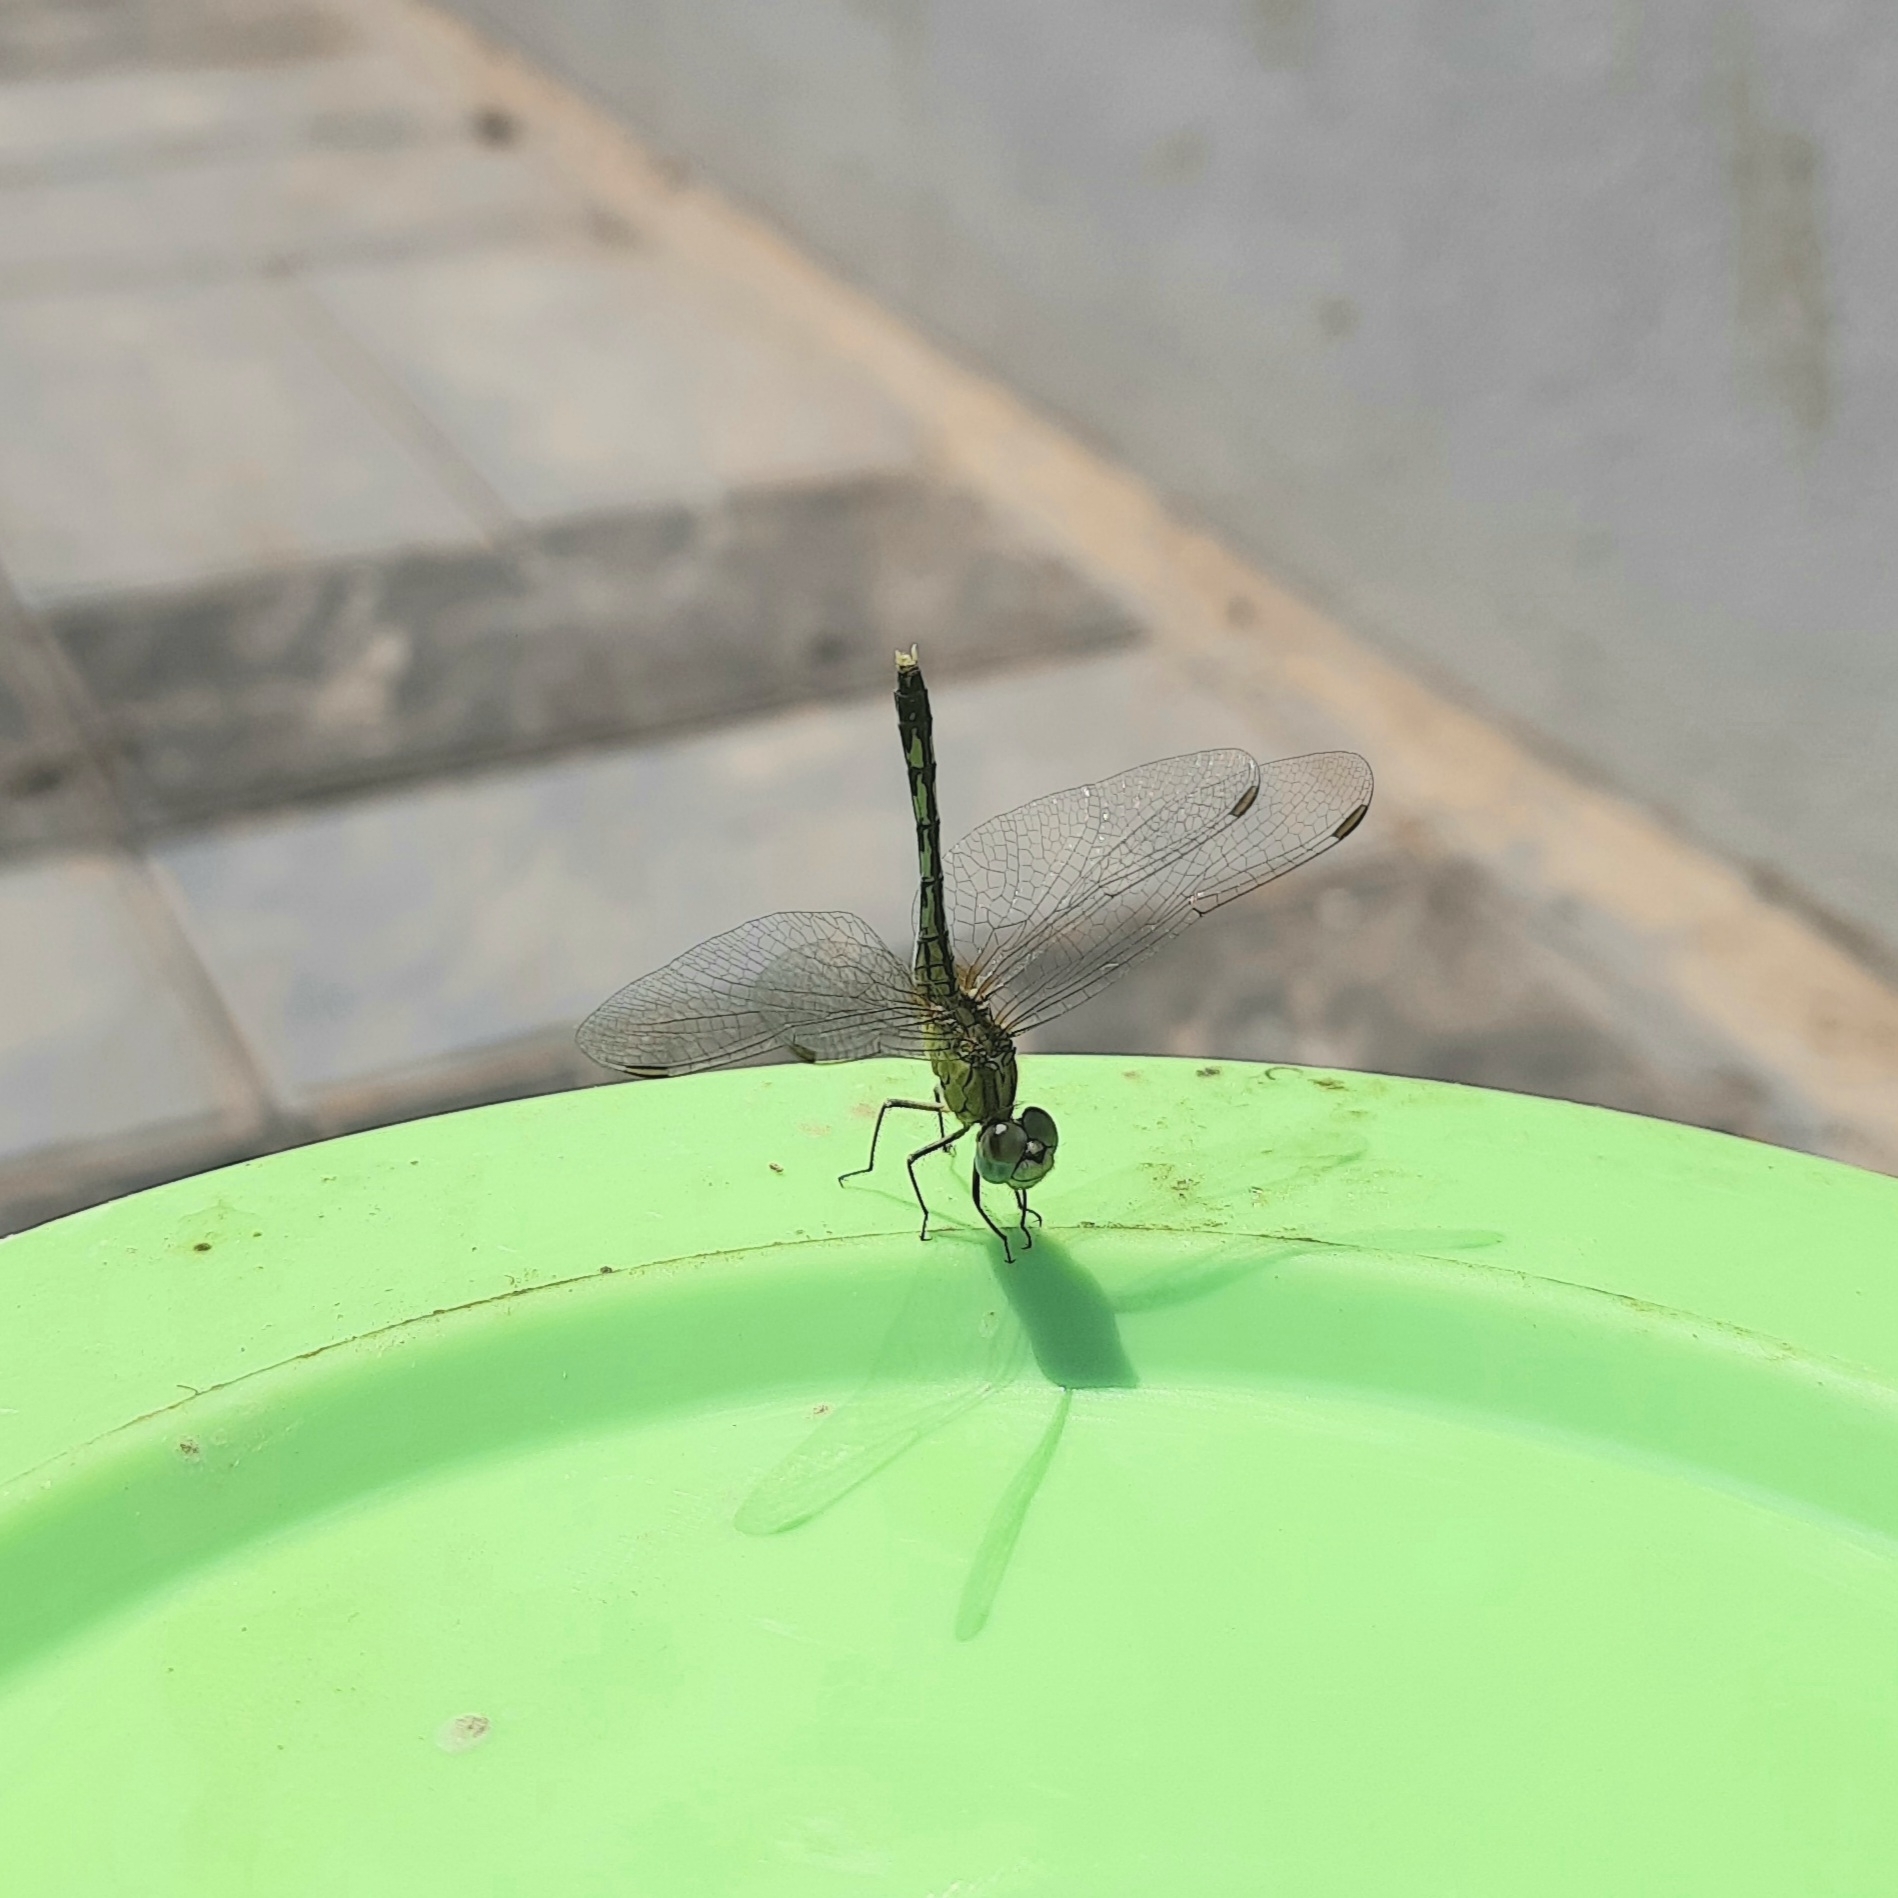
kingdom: Animalia
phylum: Arthropoda
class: Insecta
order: Odonata
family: Libellulidae
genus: Diplacodes
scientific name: Diplacodes trivialis
